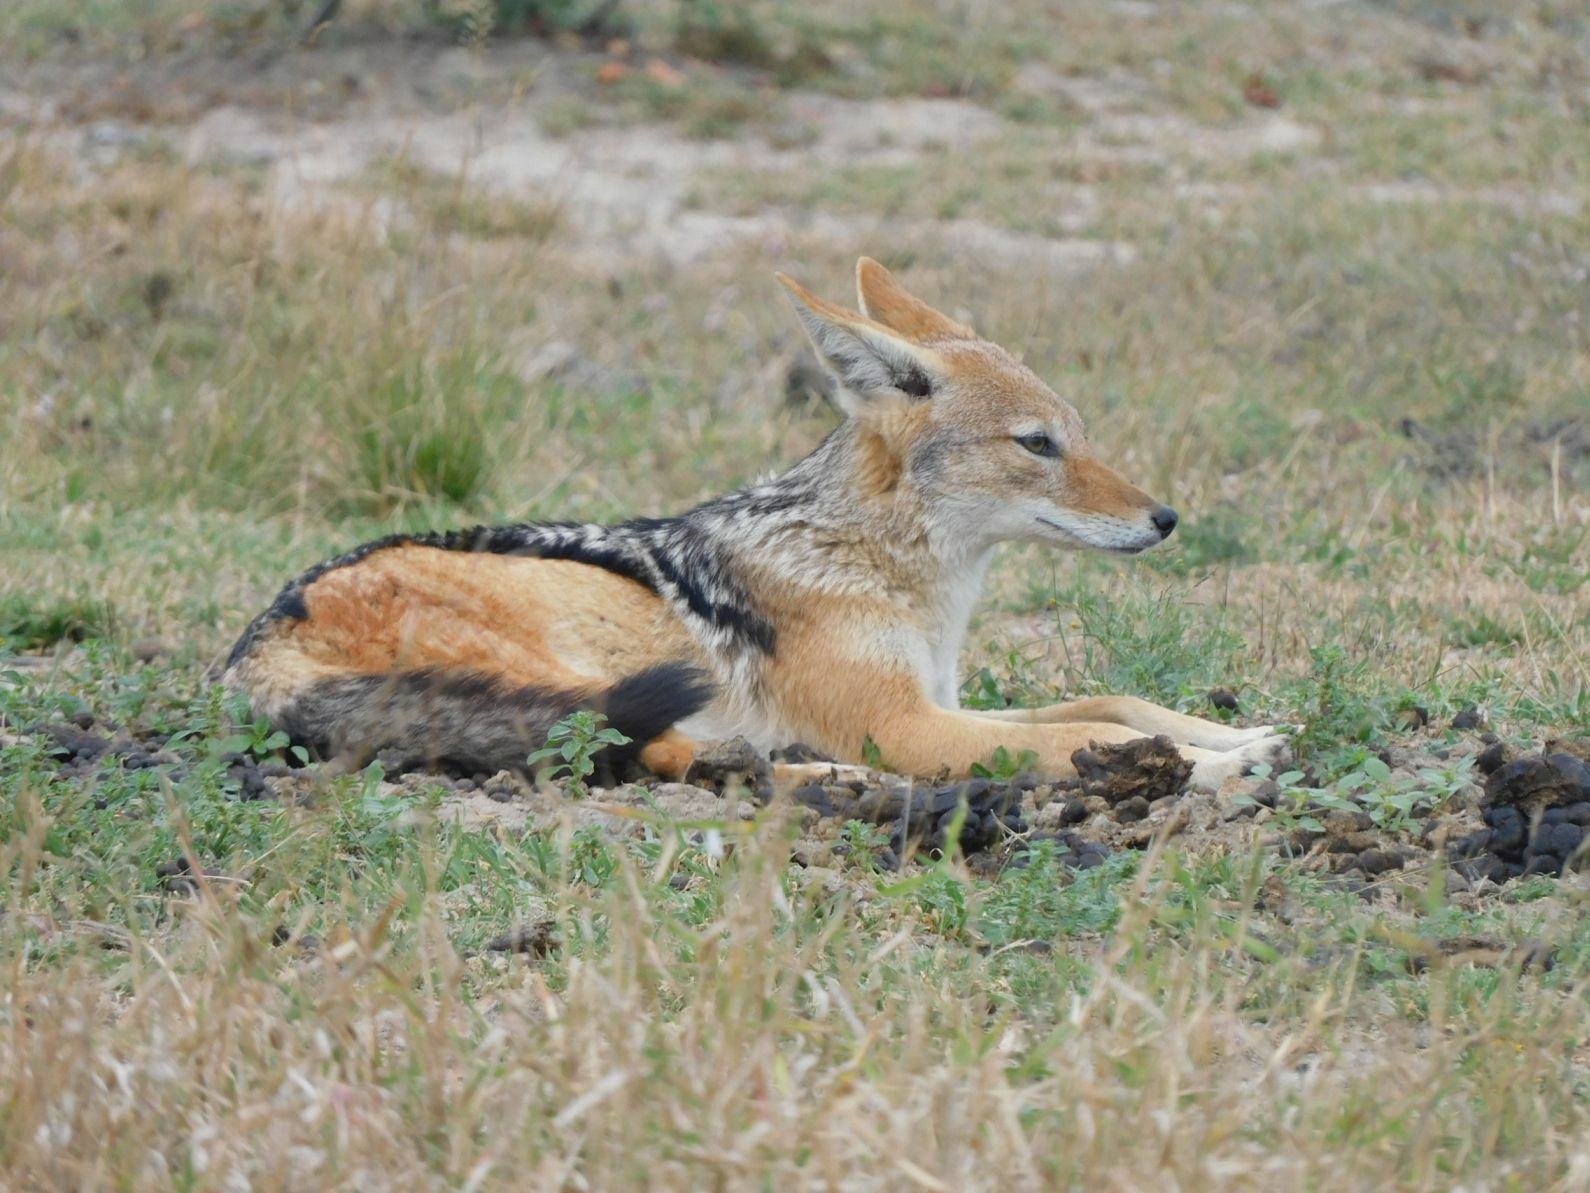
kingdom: Animalia
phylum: Chordata
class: Mammalia
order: Carnivora
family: Canidae
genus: Lupulella
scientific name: Lupulella
